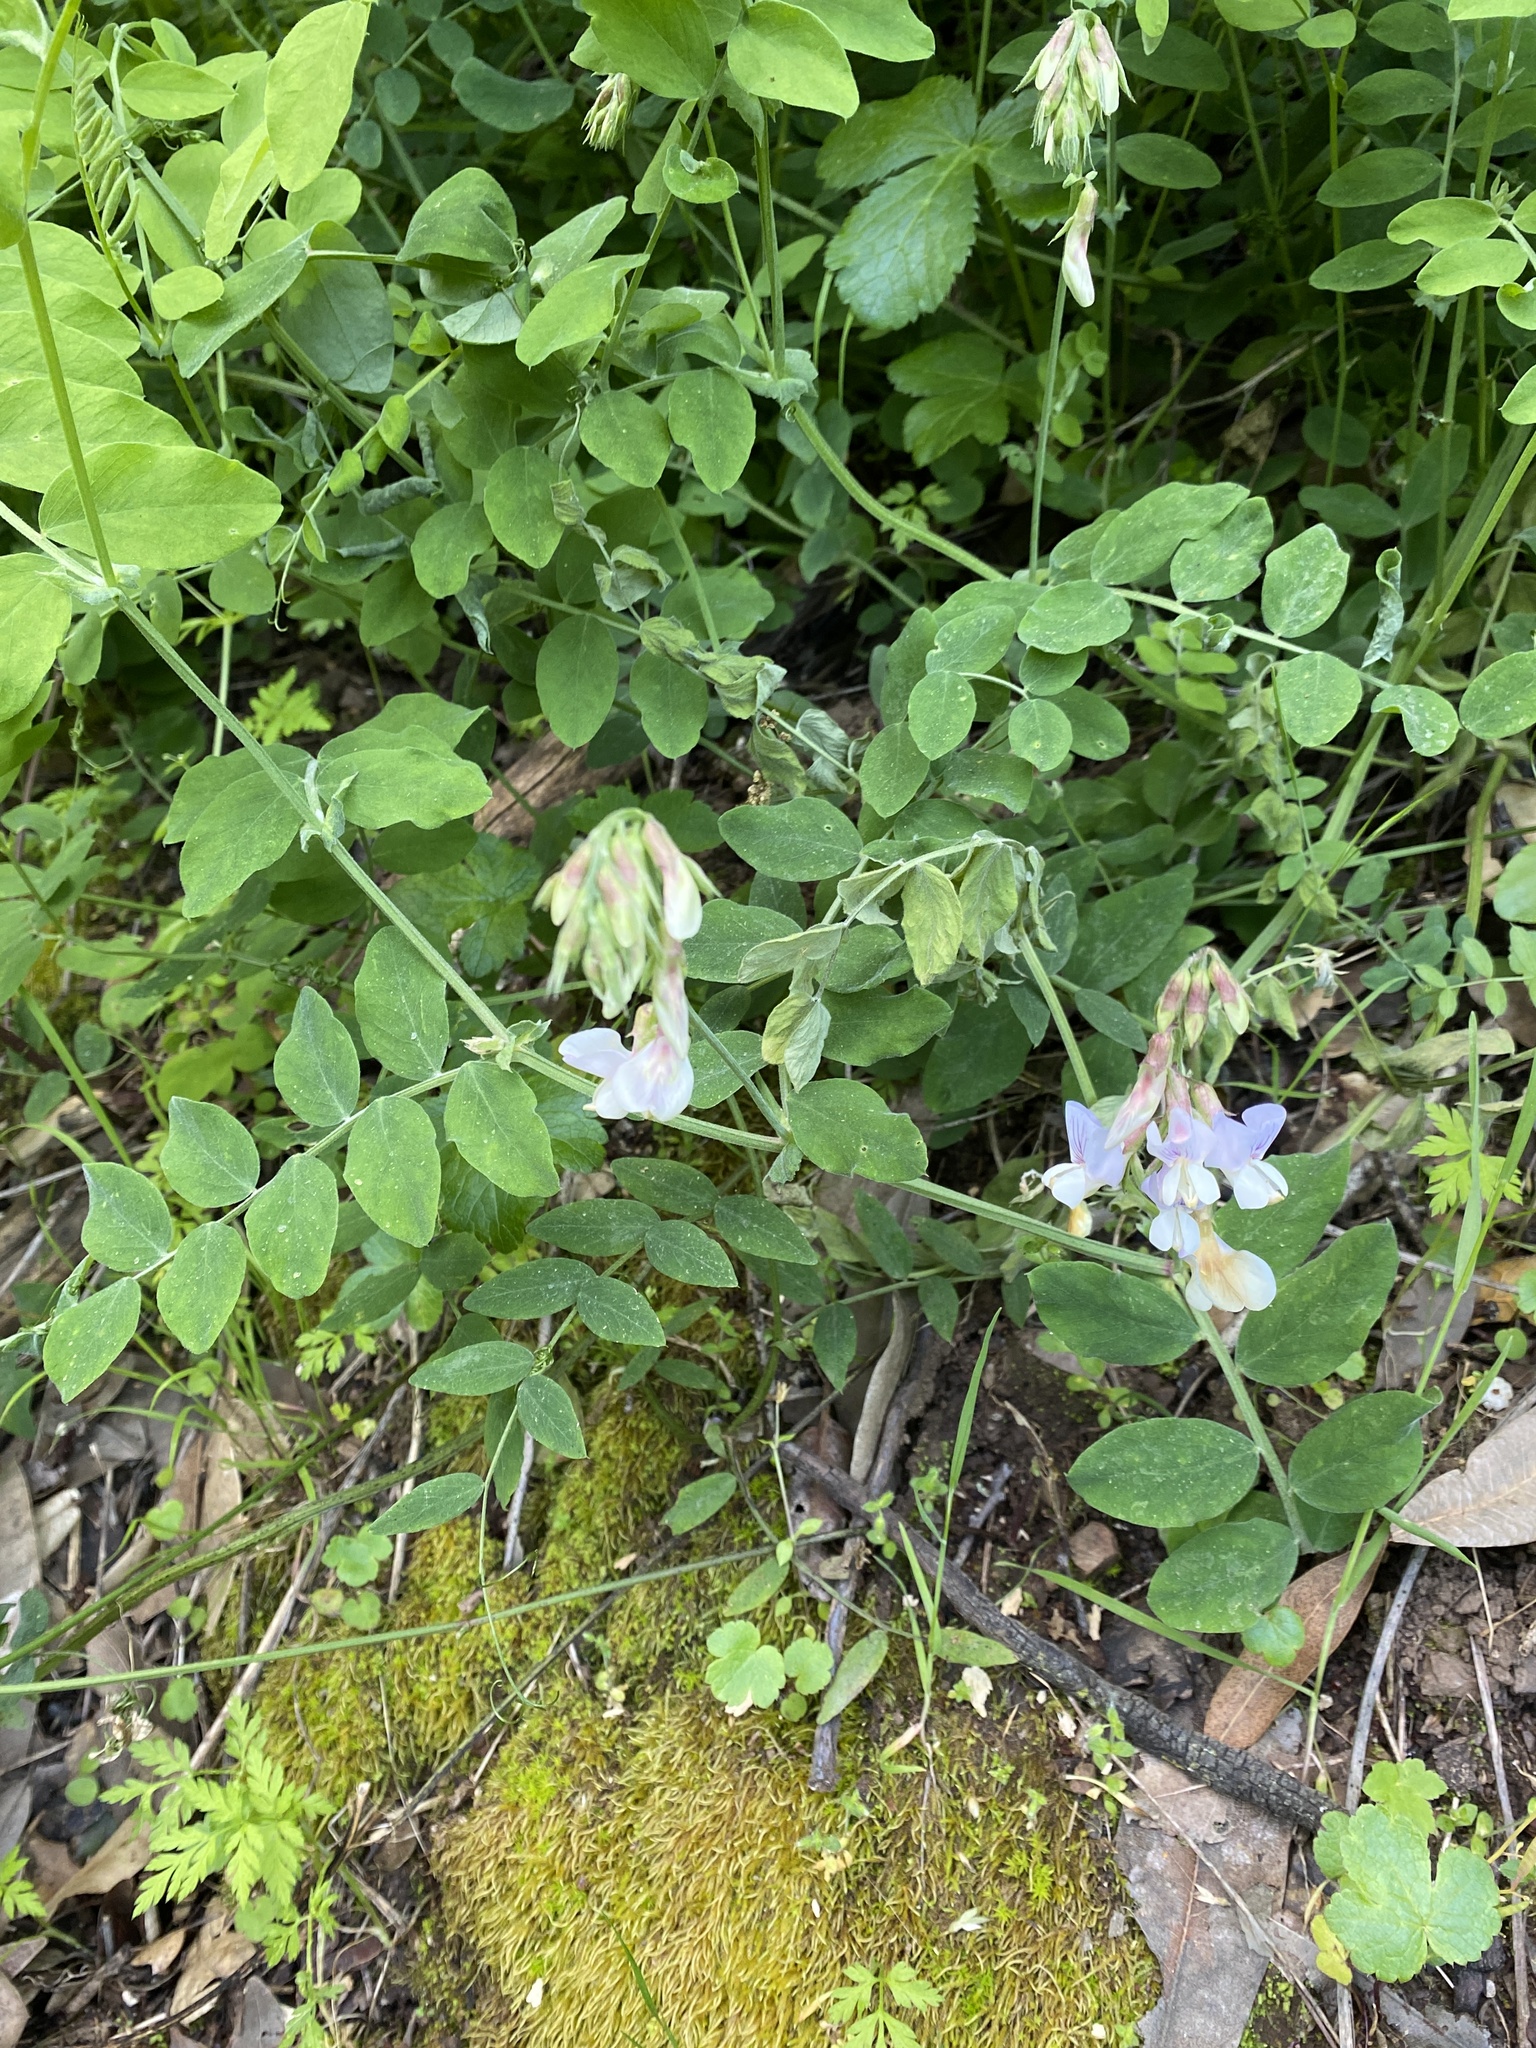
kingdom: Plantae
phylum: Tracheophyta
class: Magnoliopsida
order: Fabales
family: Fabaceae
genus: Lathyrus
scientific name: Lathyrus vestitus
